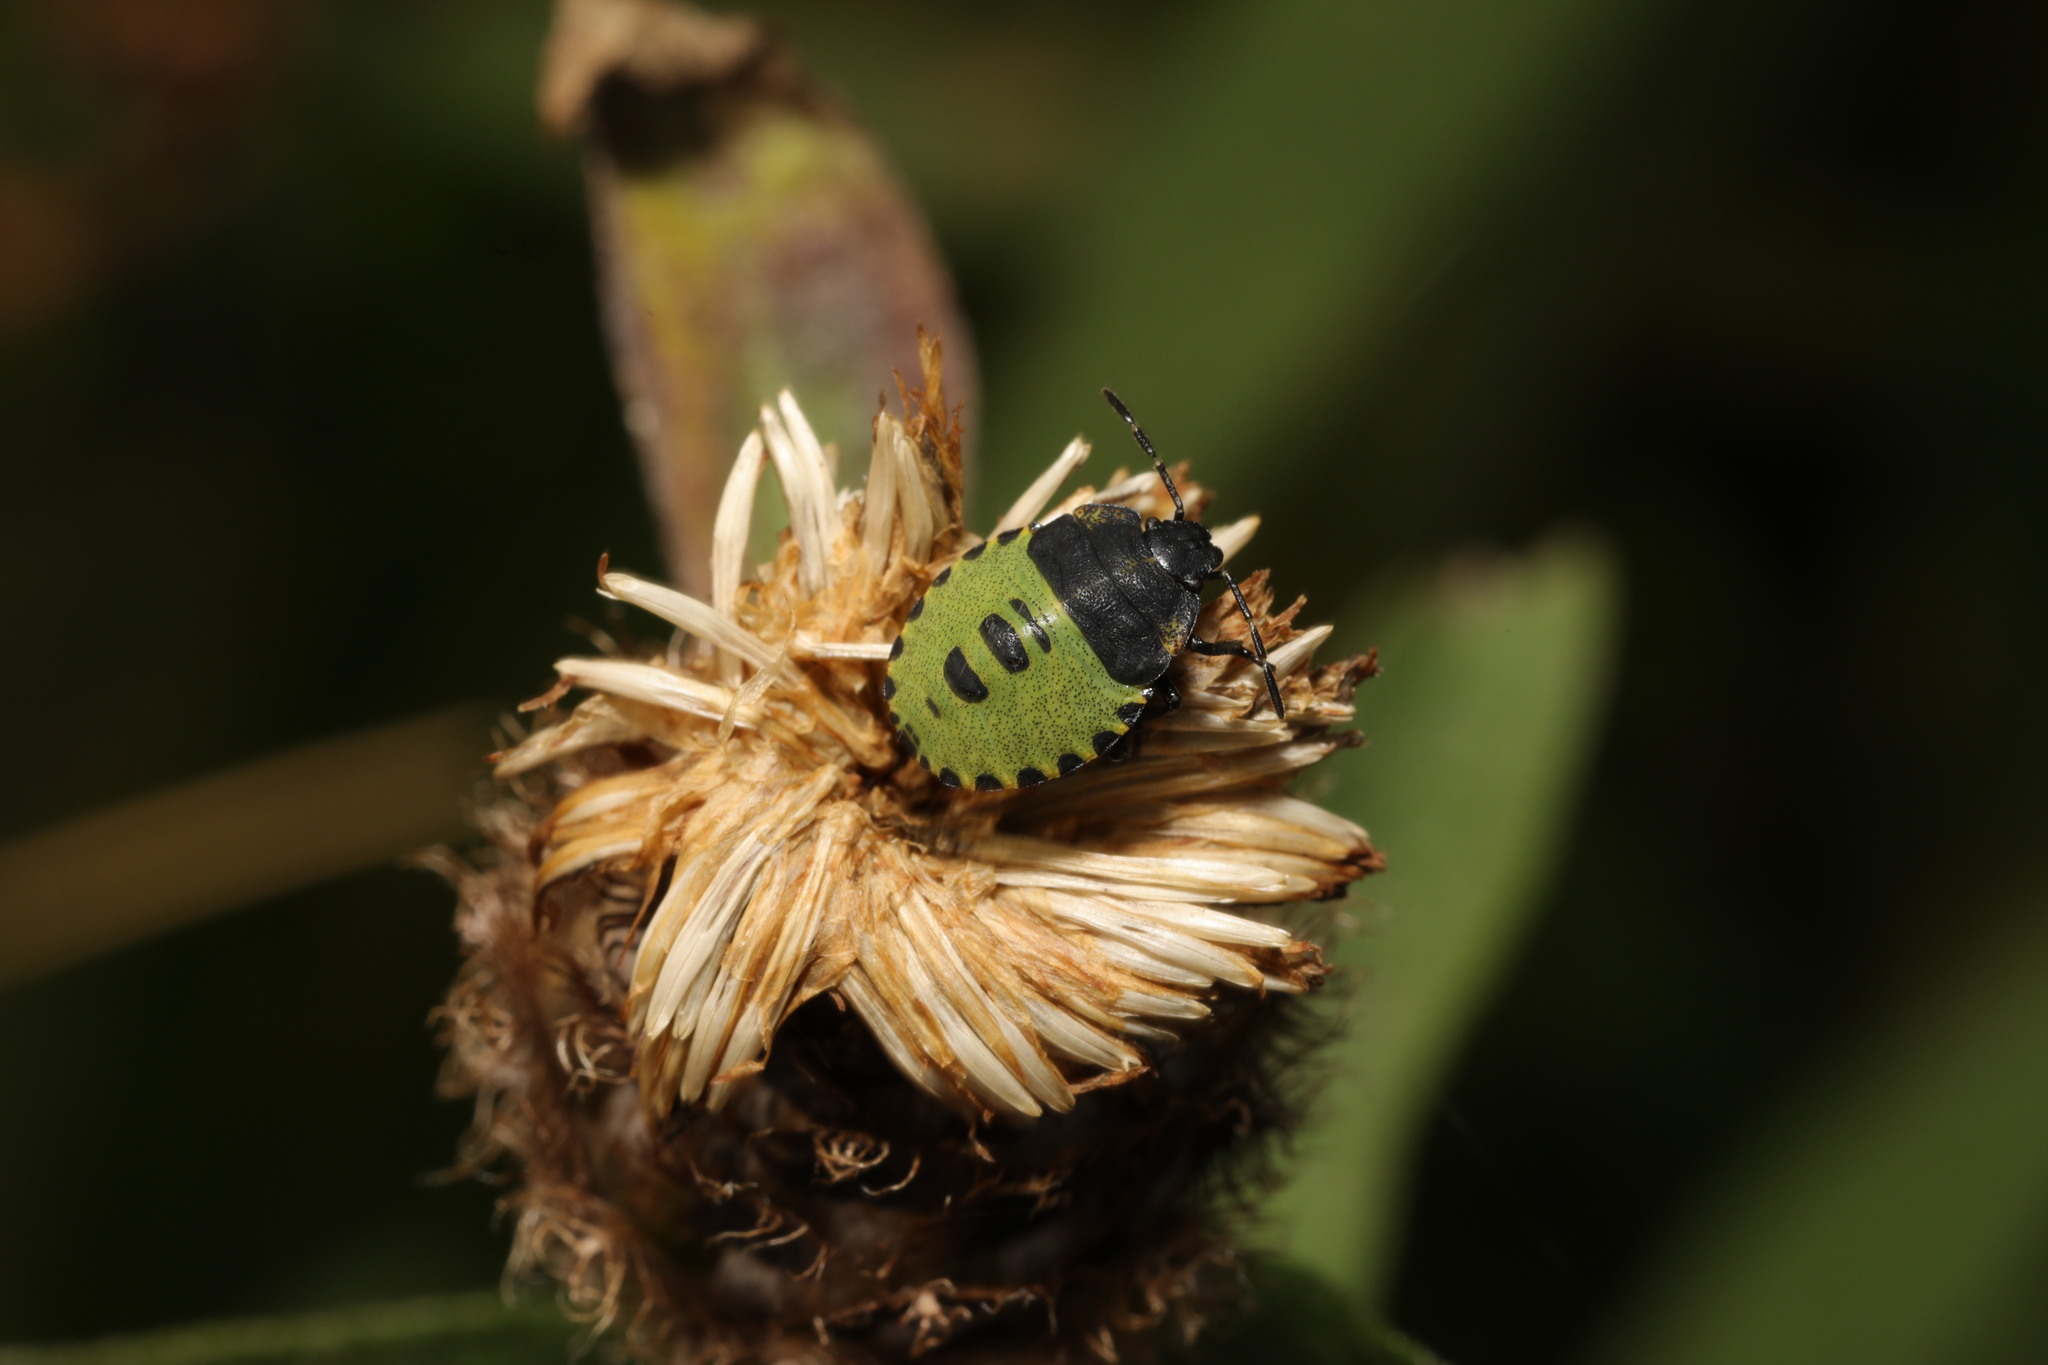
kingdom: Animalia
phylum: Arthropoda
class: Insecta
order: Hemiptera
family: Pentatomidae
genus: Palomena
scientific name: Palomena prasina
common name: Green shieldbug
